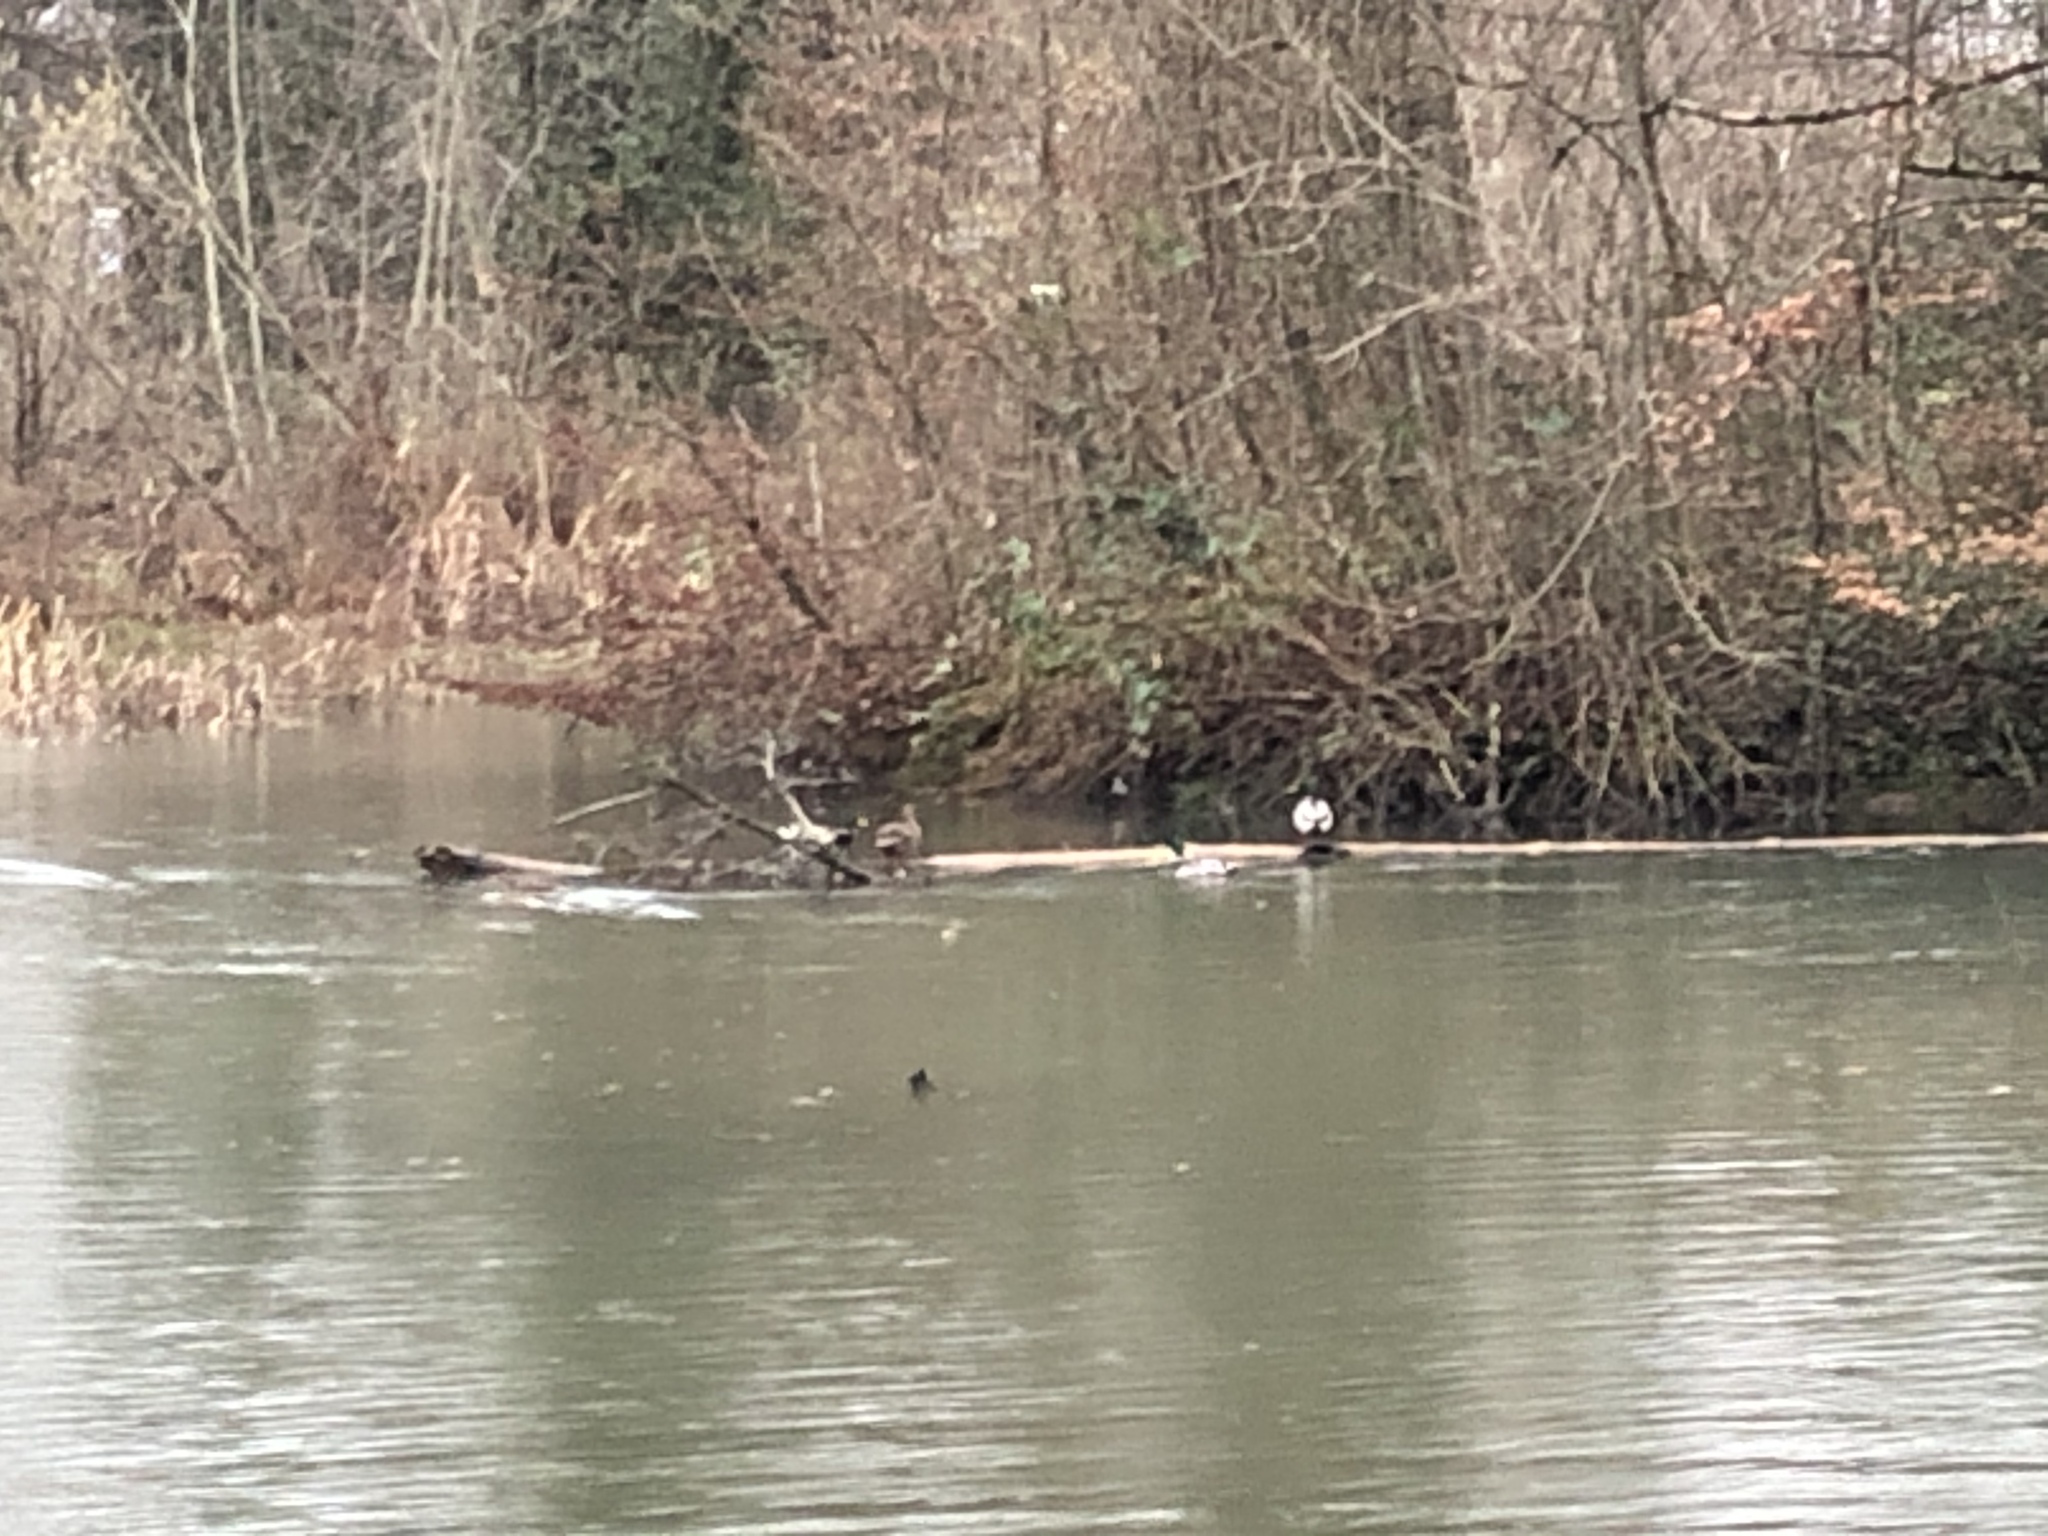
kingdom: Animalia
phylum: Chordata
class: Aves
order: Anseriformes
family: Anatidae
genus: Anas
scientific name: Anas platyrhynchos
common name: Mallard
